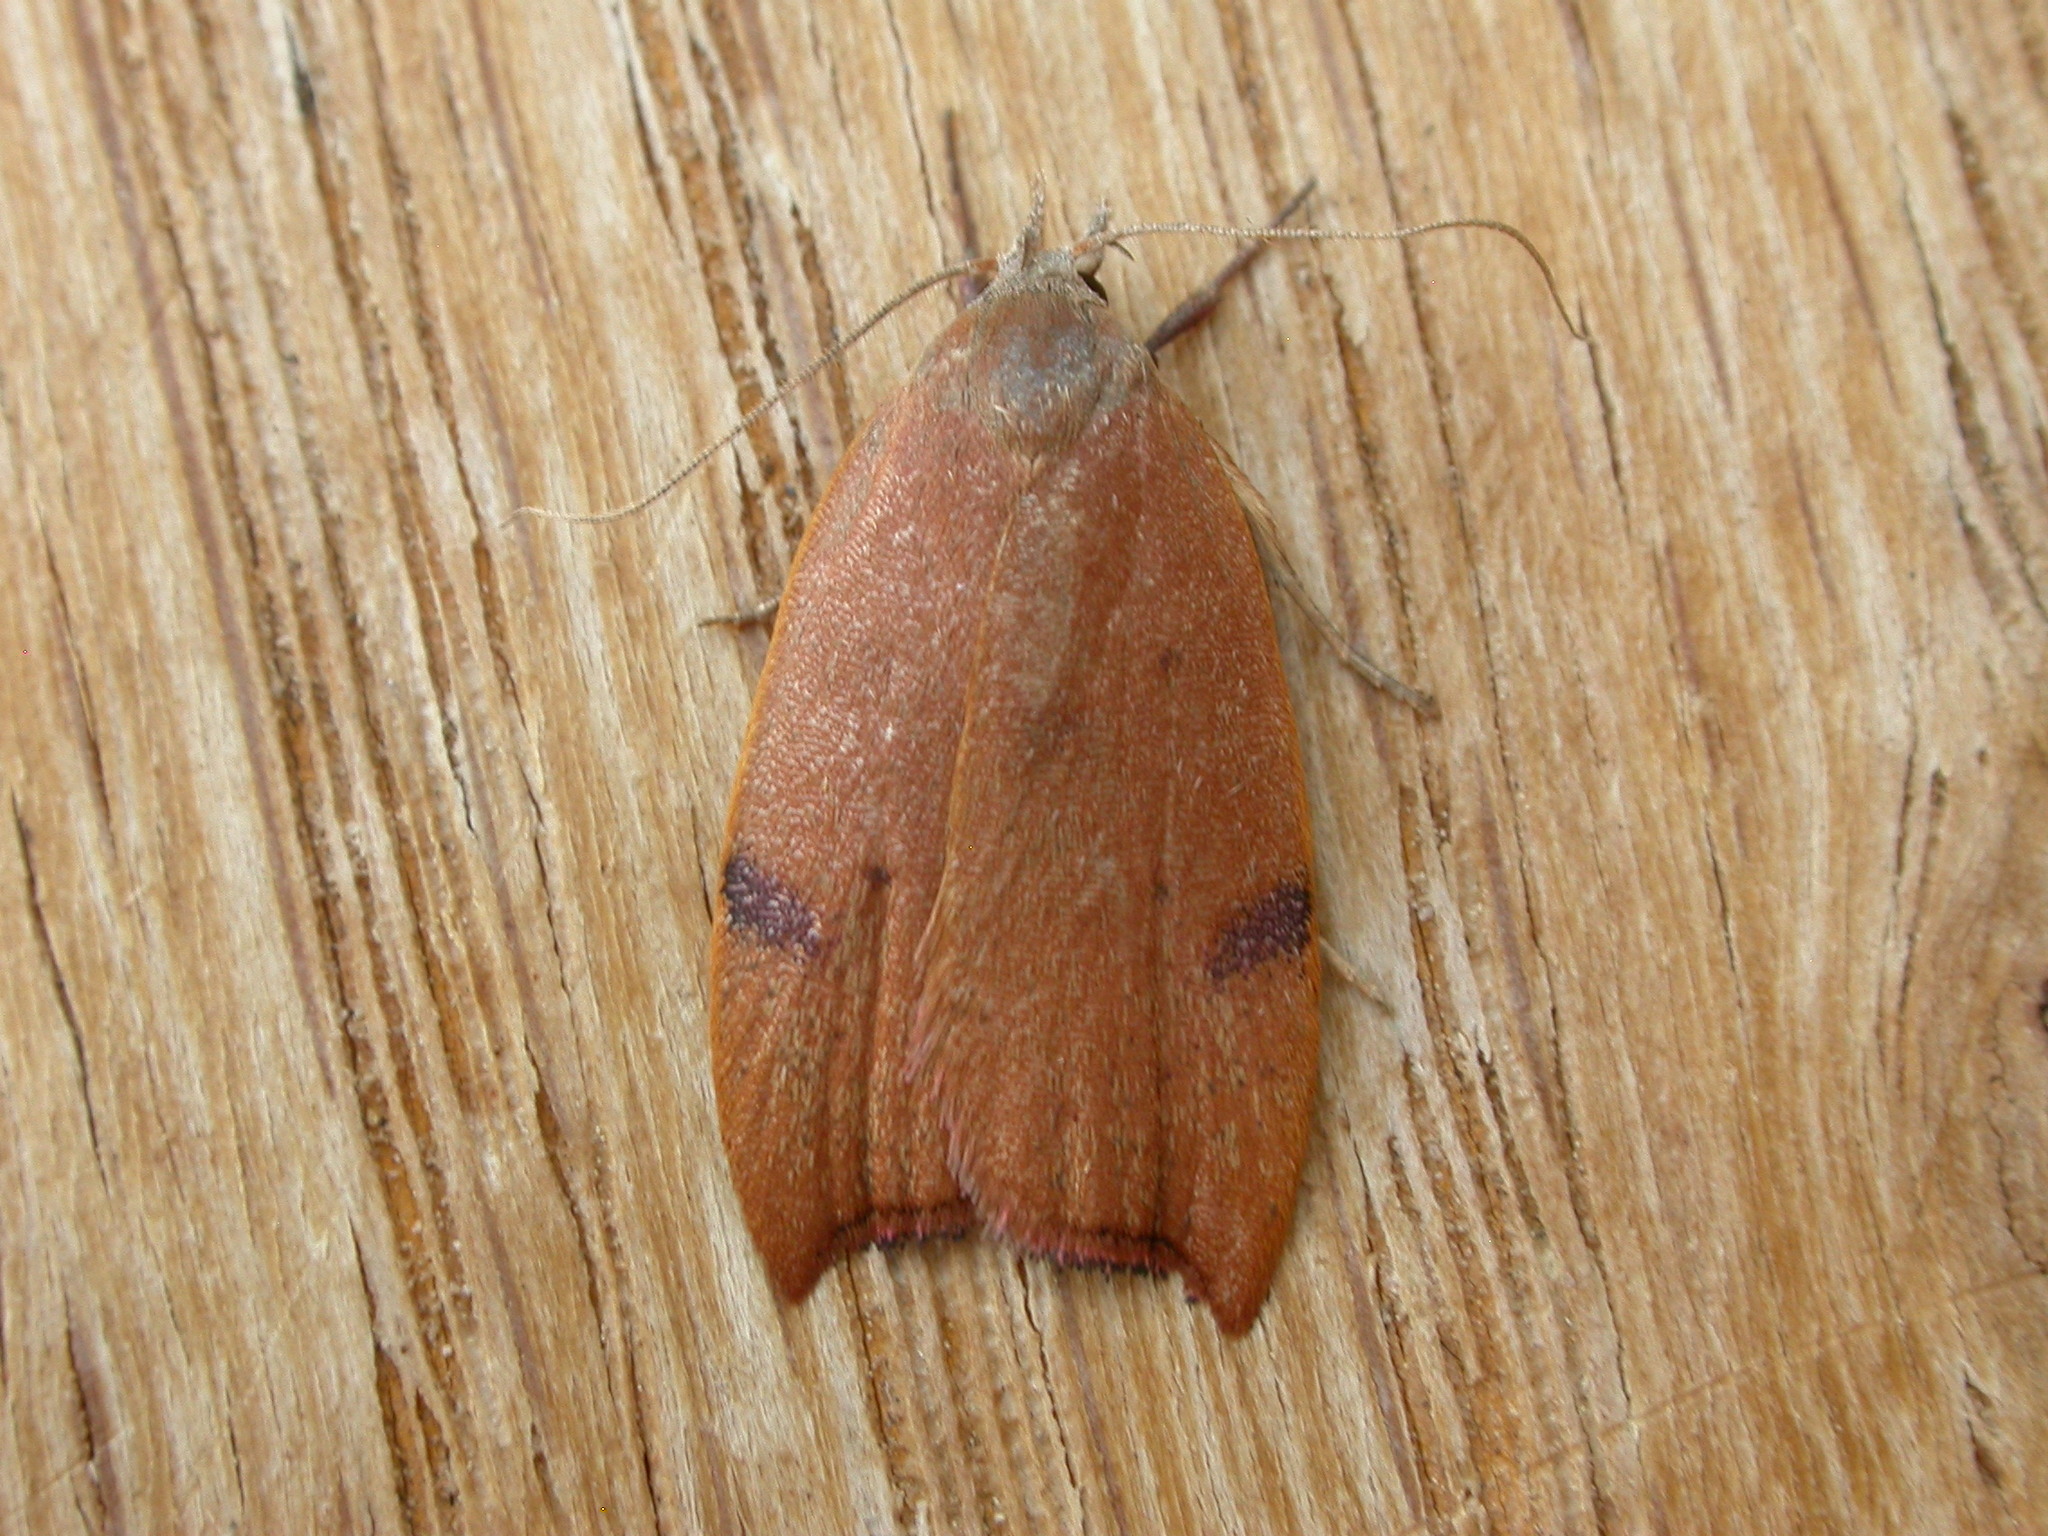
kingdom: Animalia
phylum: Arthropoda
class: Insecta
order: Lepidoptera
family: Oecophoridae
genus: Tortricopsis
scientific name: Tortricopsis uncinella
